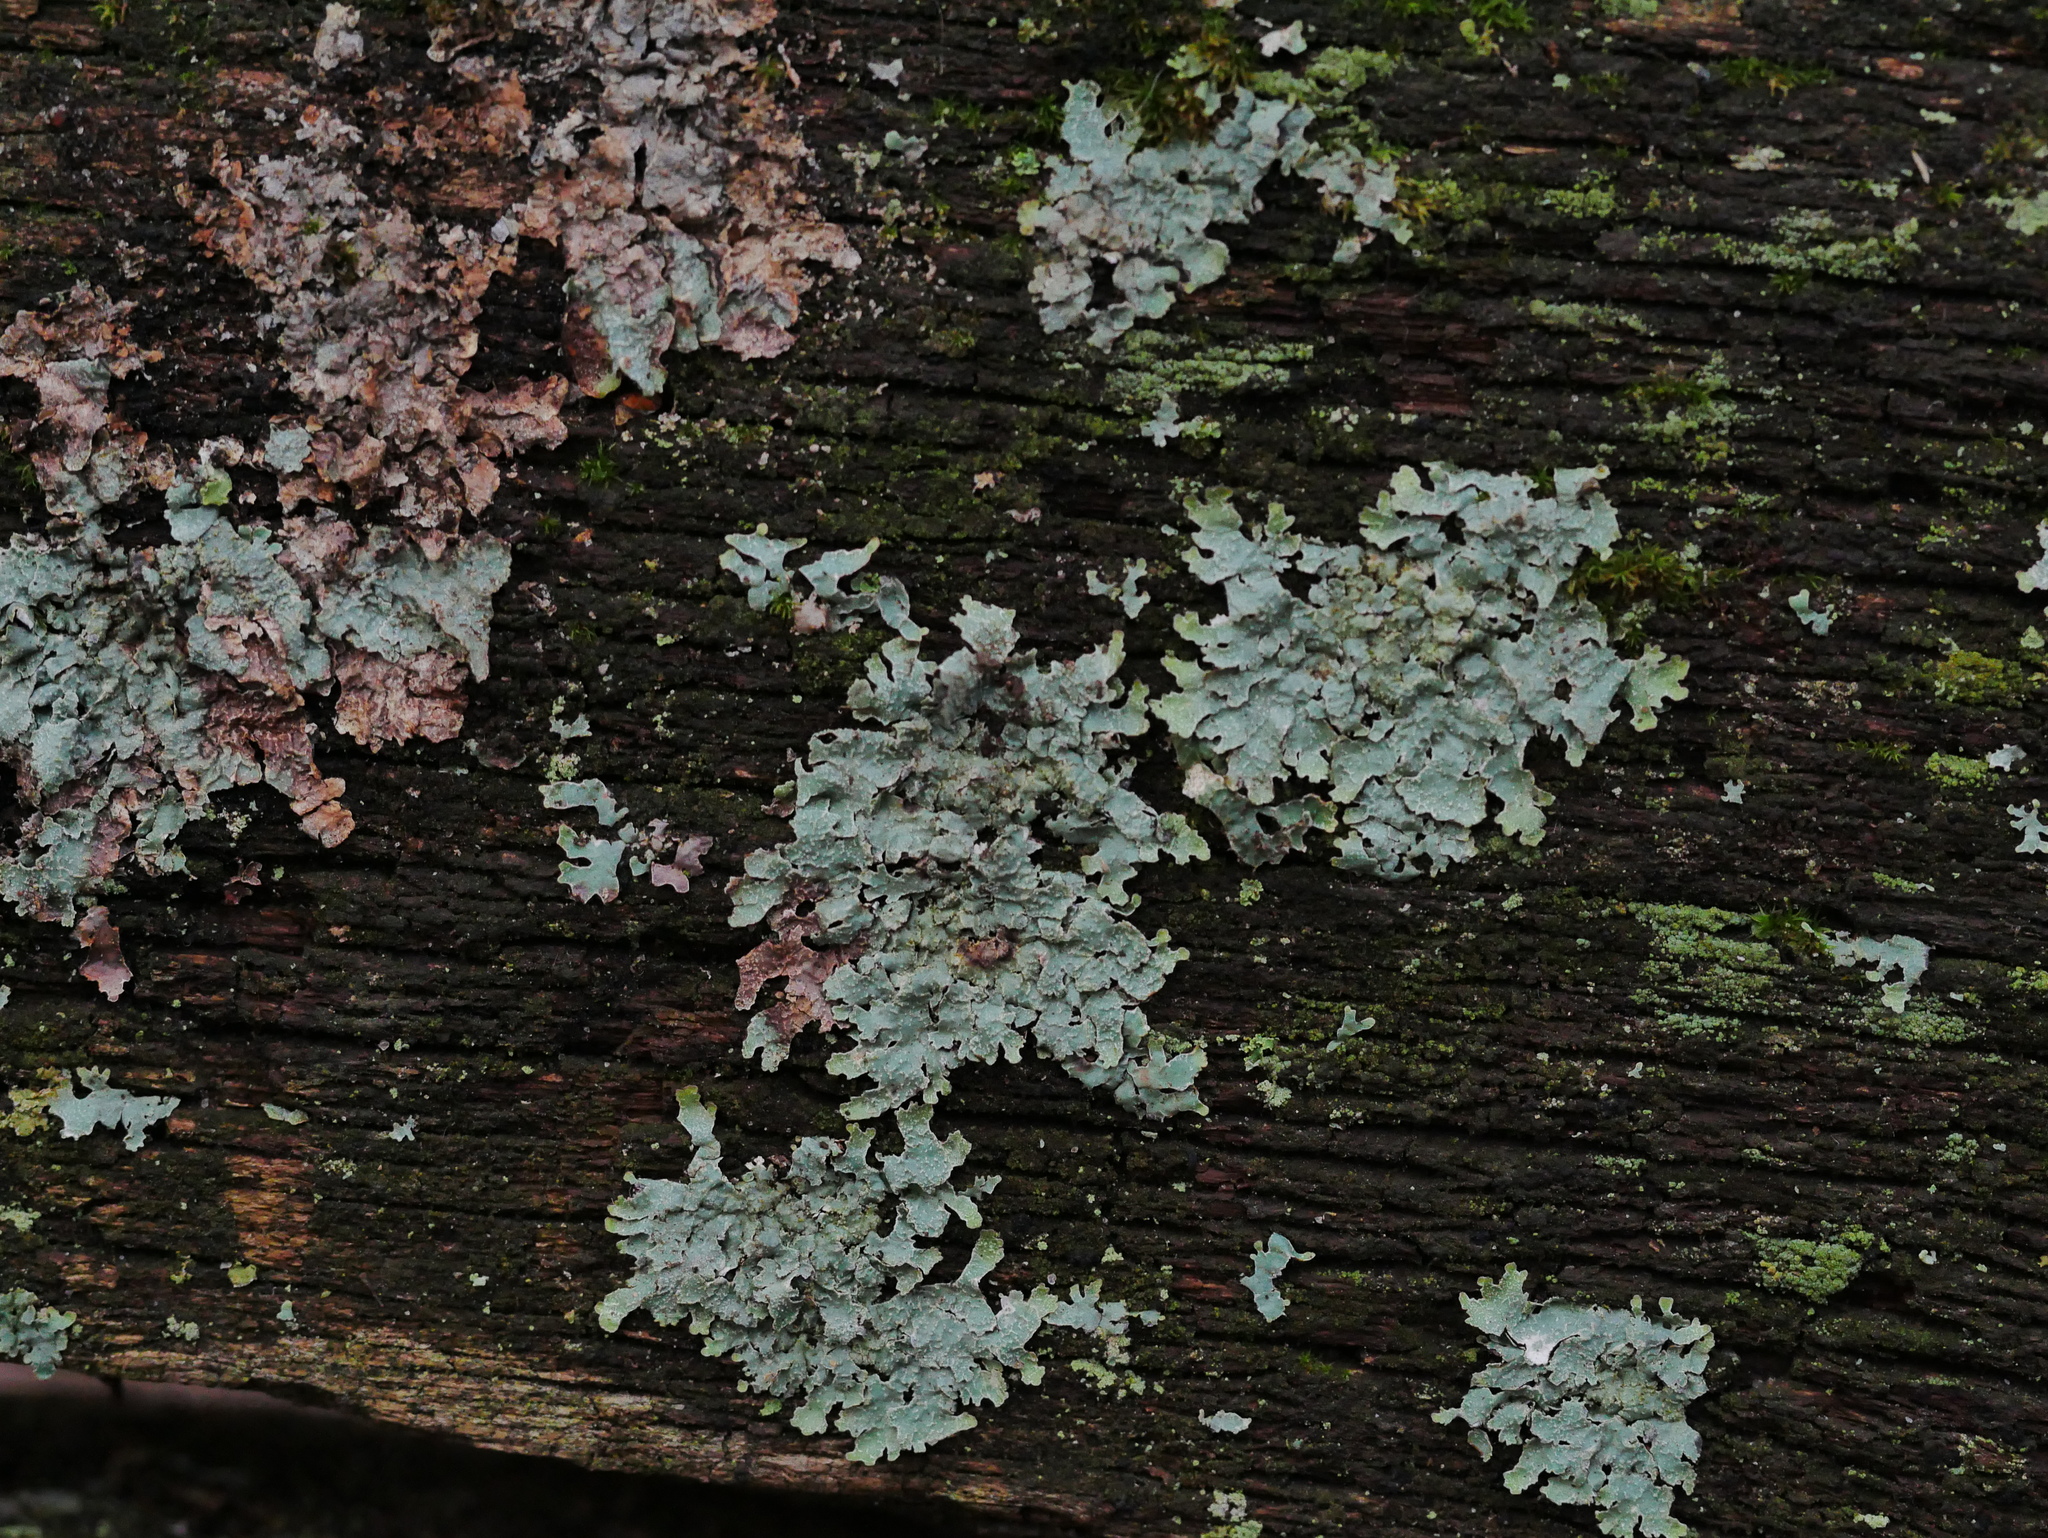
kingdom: Fungi
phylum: Ascomycota
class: Lecanoromycetes
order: Lecanorales
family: Parmeliaceae
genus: Parmelia
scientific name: Parmelia sulcata
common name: Netted shield lichen
